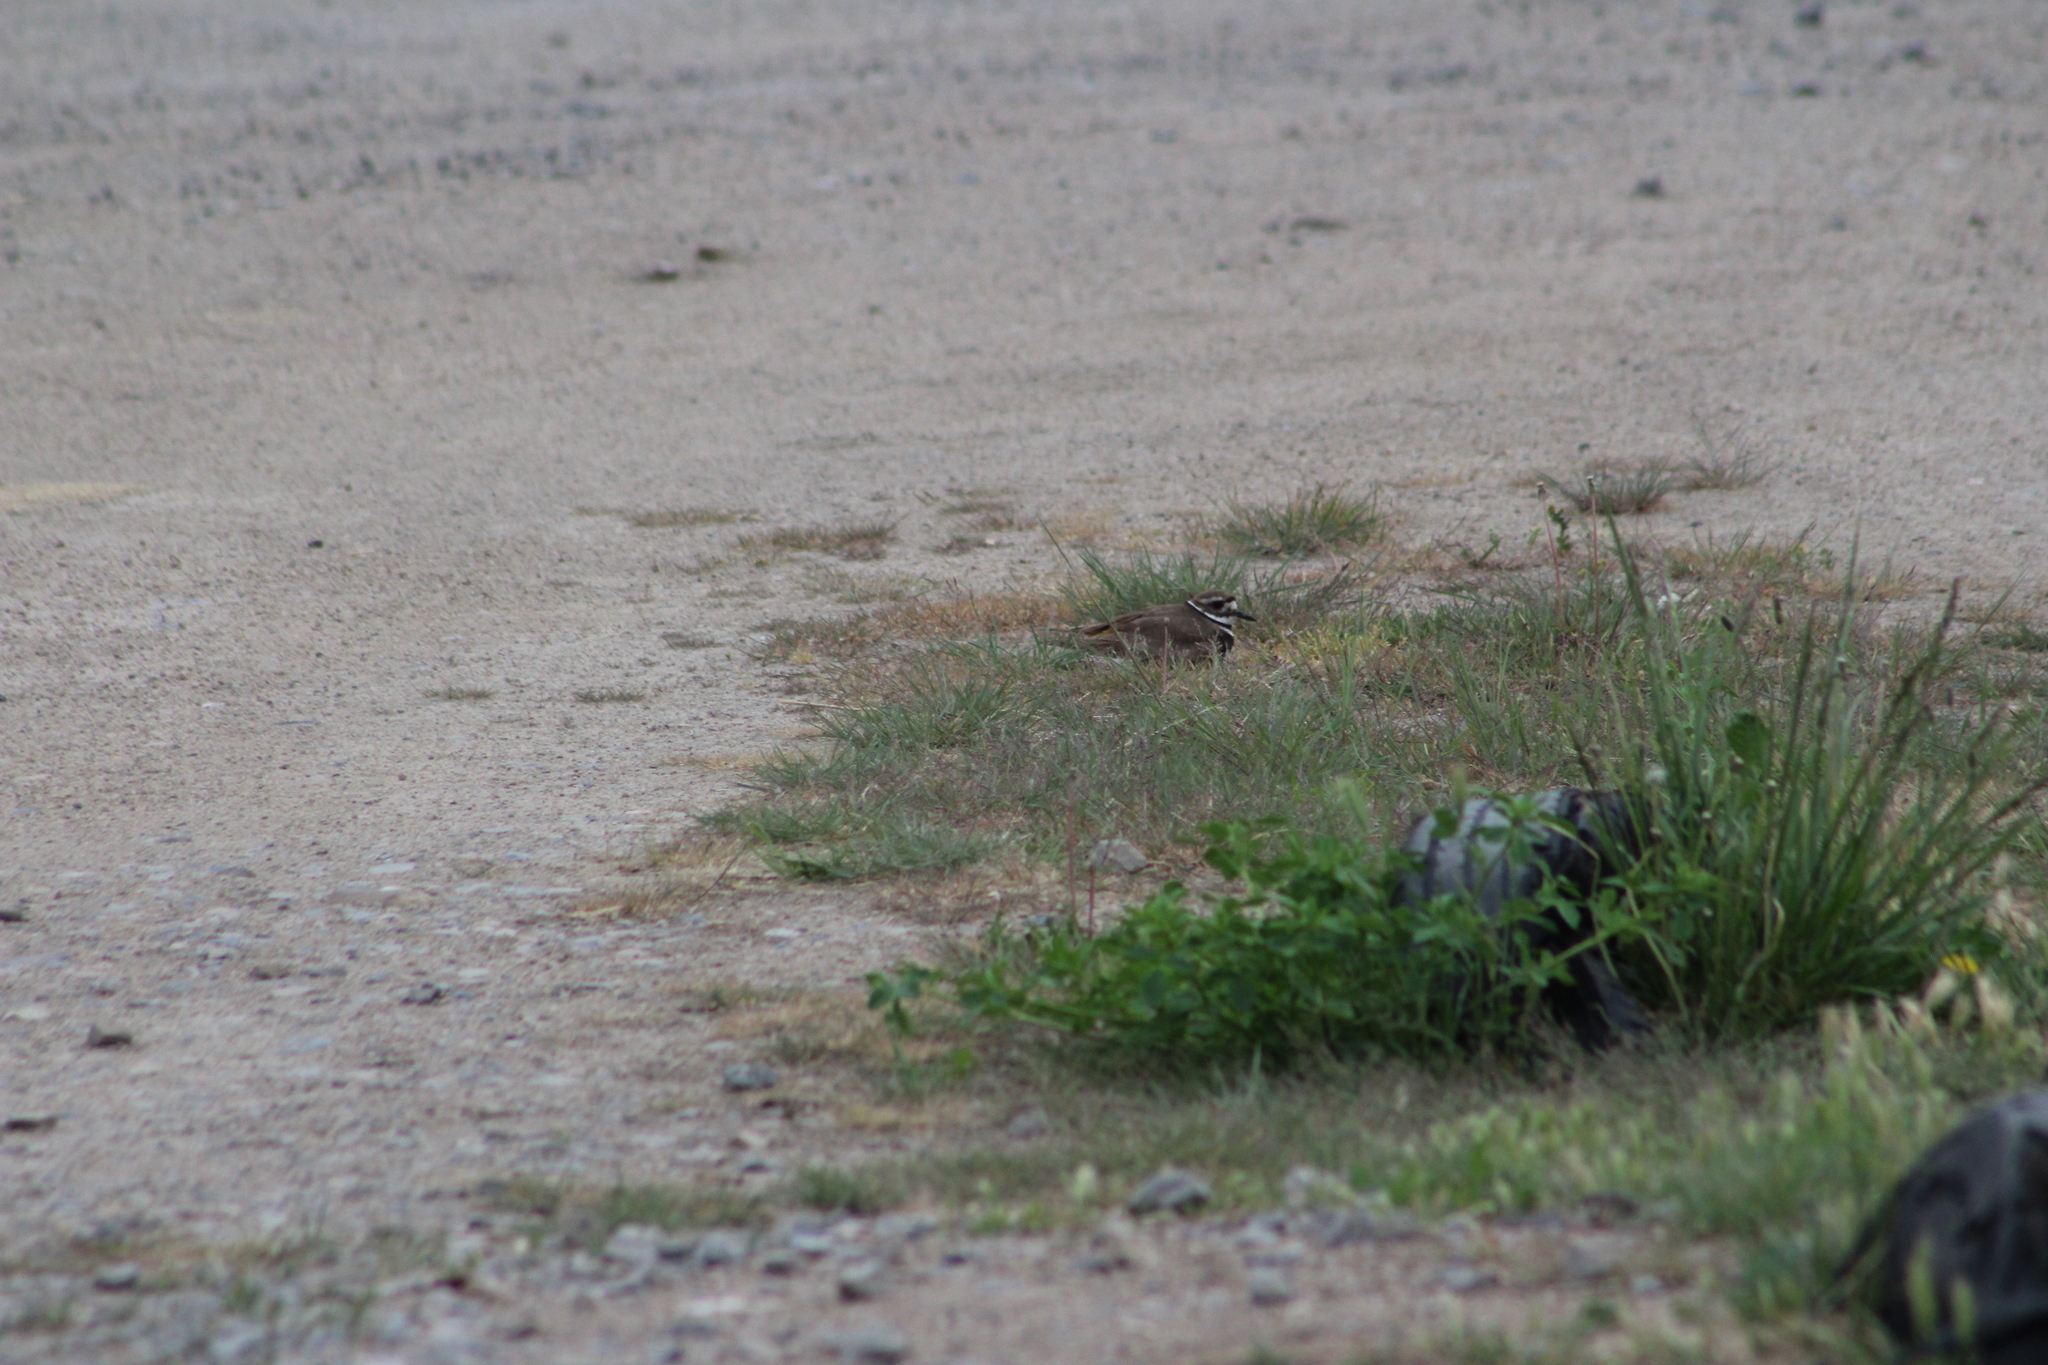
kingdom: Animalia
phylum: Chordata
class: Aves
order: Charadriiformes
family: Charadriidae
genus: Charadrius
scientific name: Charadrius vociferus
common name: Killdeer
